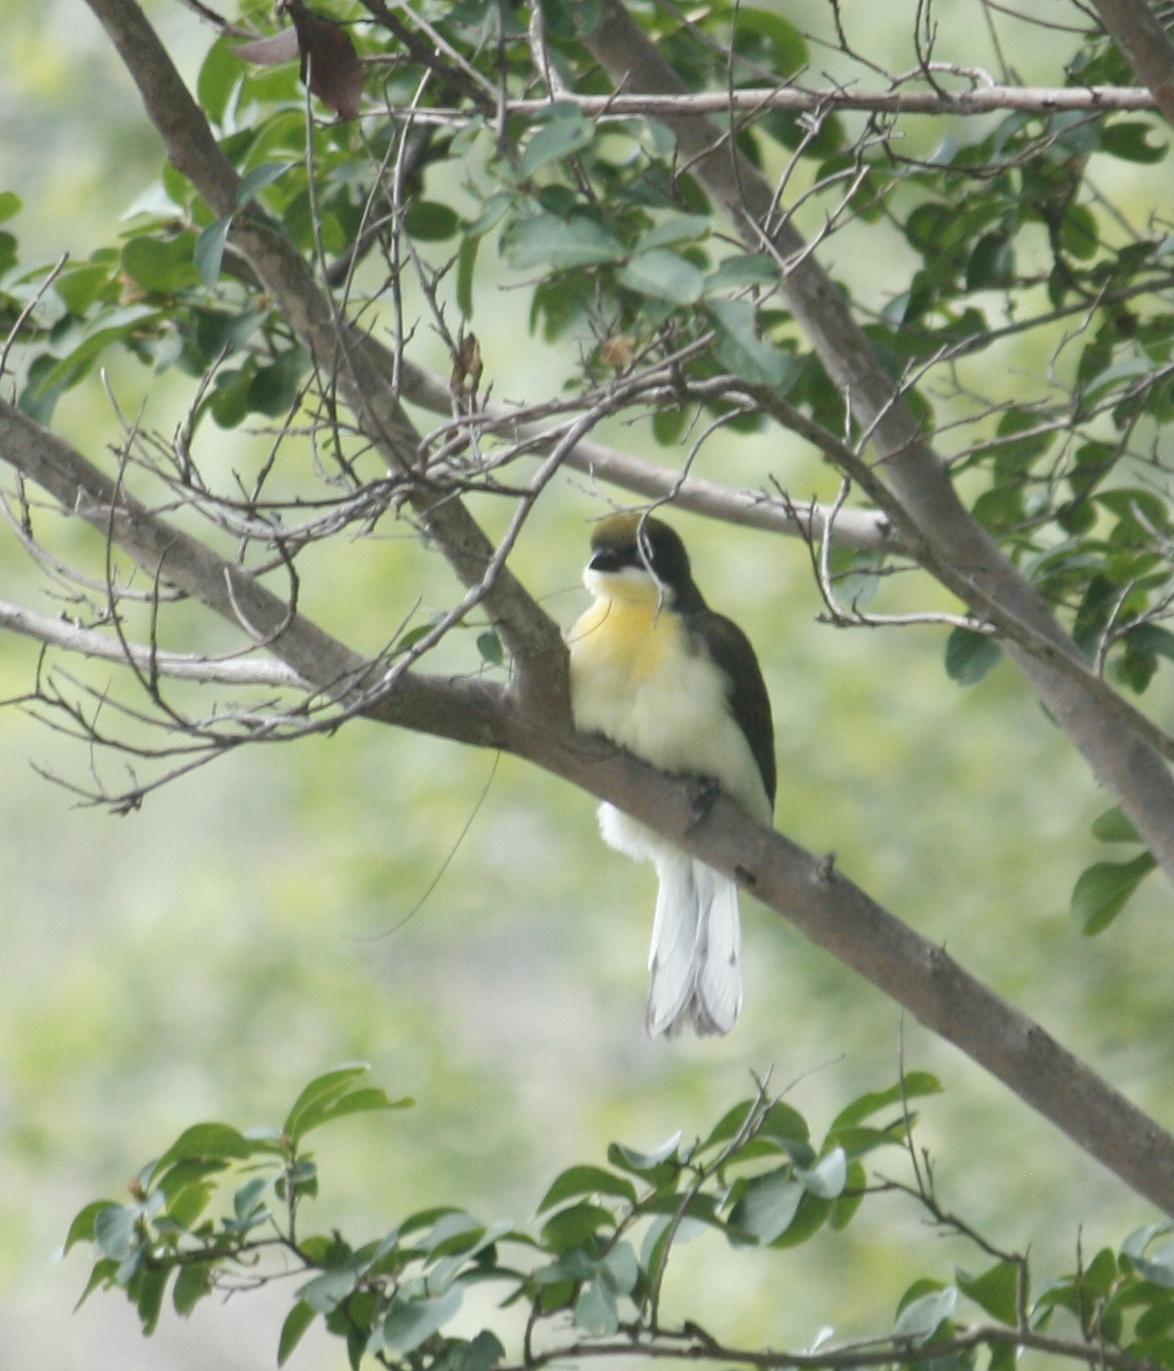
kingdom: Animalia
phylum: Chordata
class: Aves
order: Piciformes
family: Indicatoridae
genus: Indicator
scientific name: Indicator indicator
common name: Greater honeyguide
